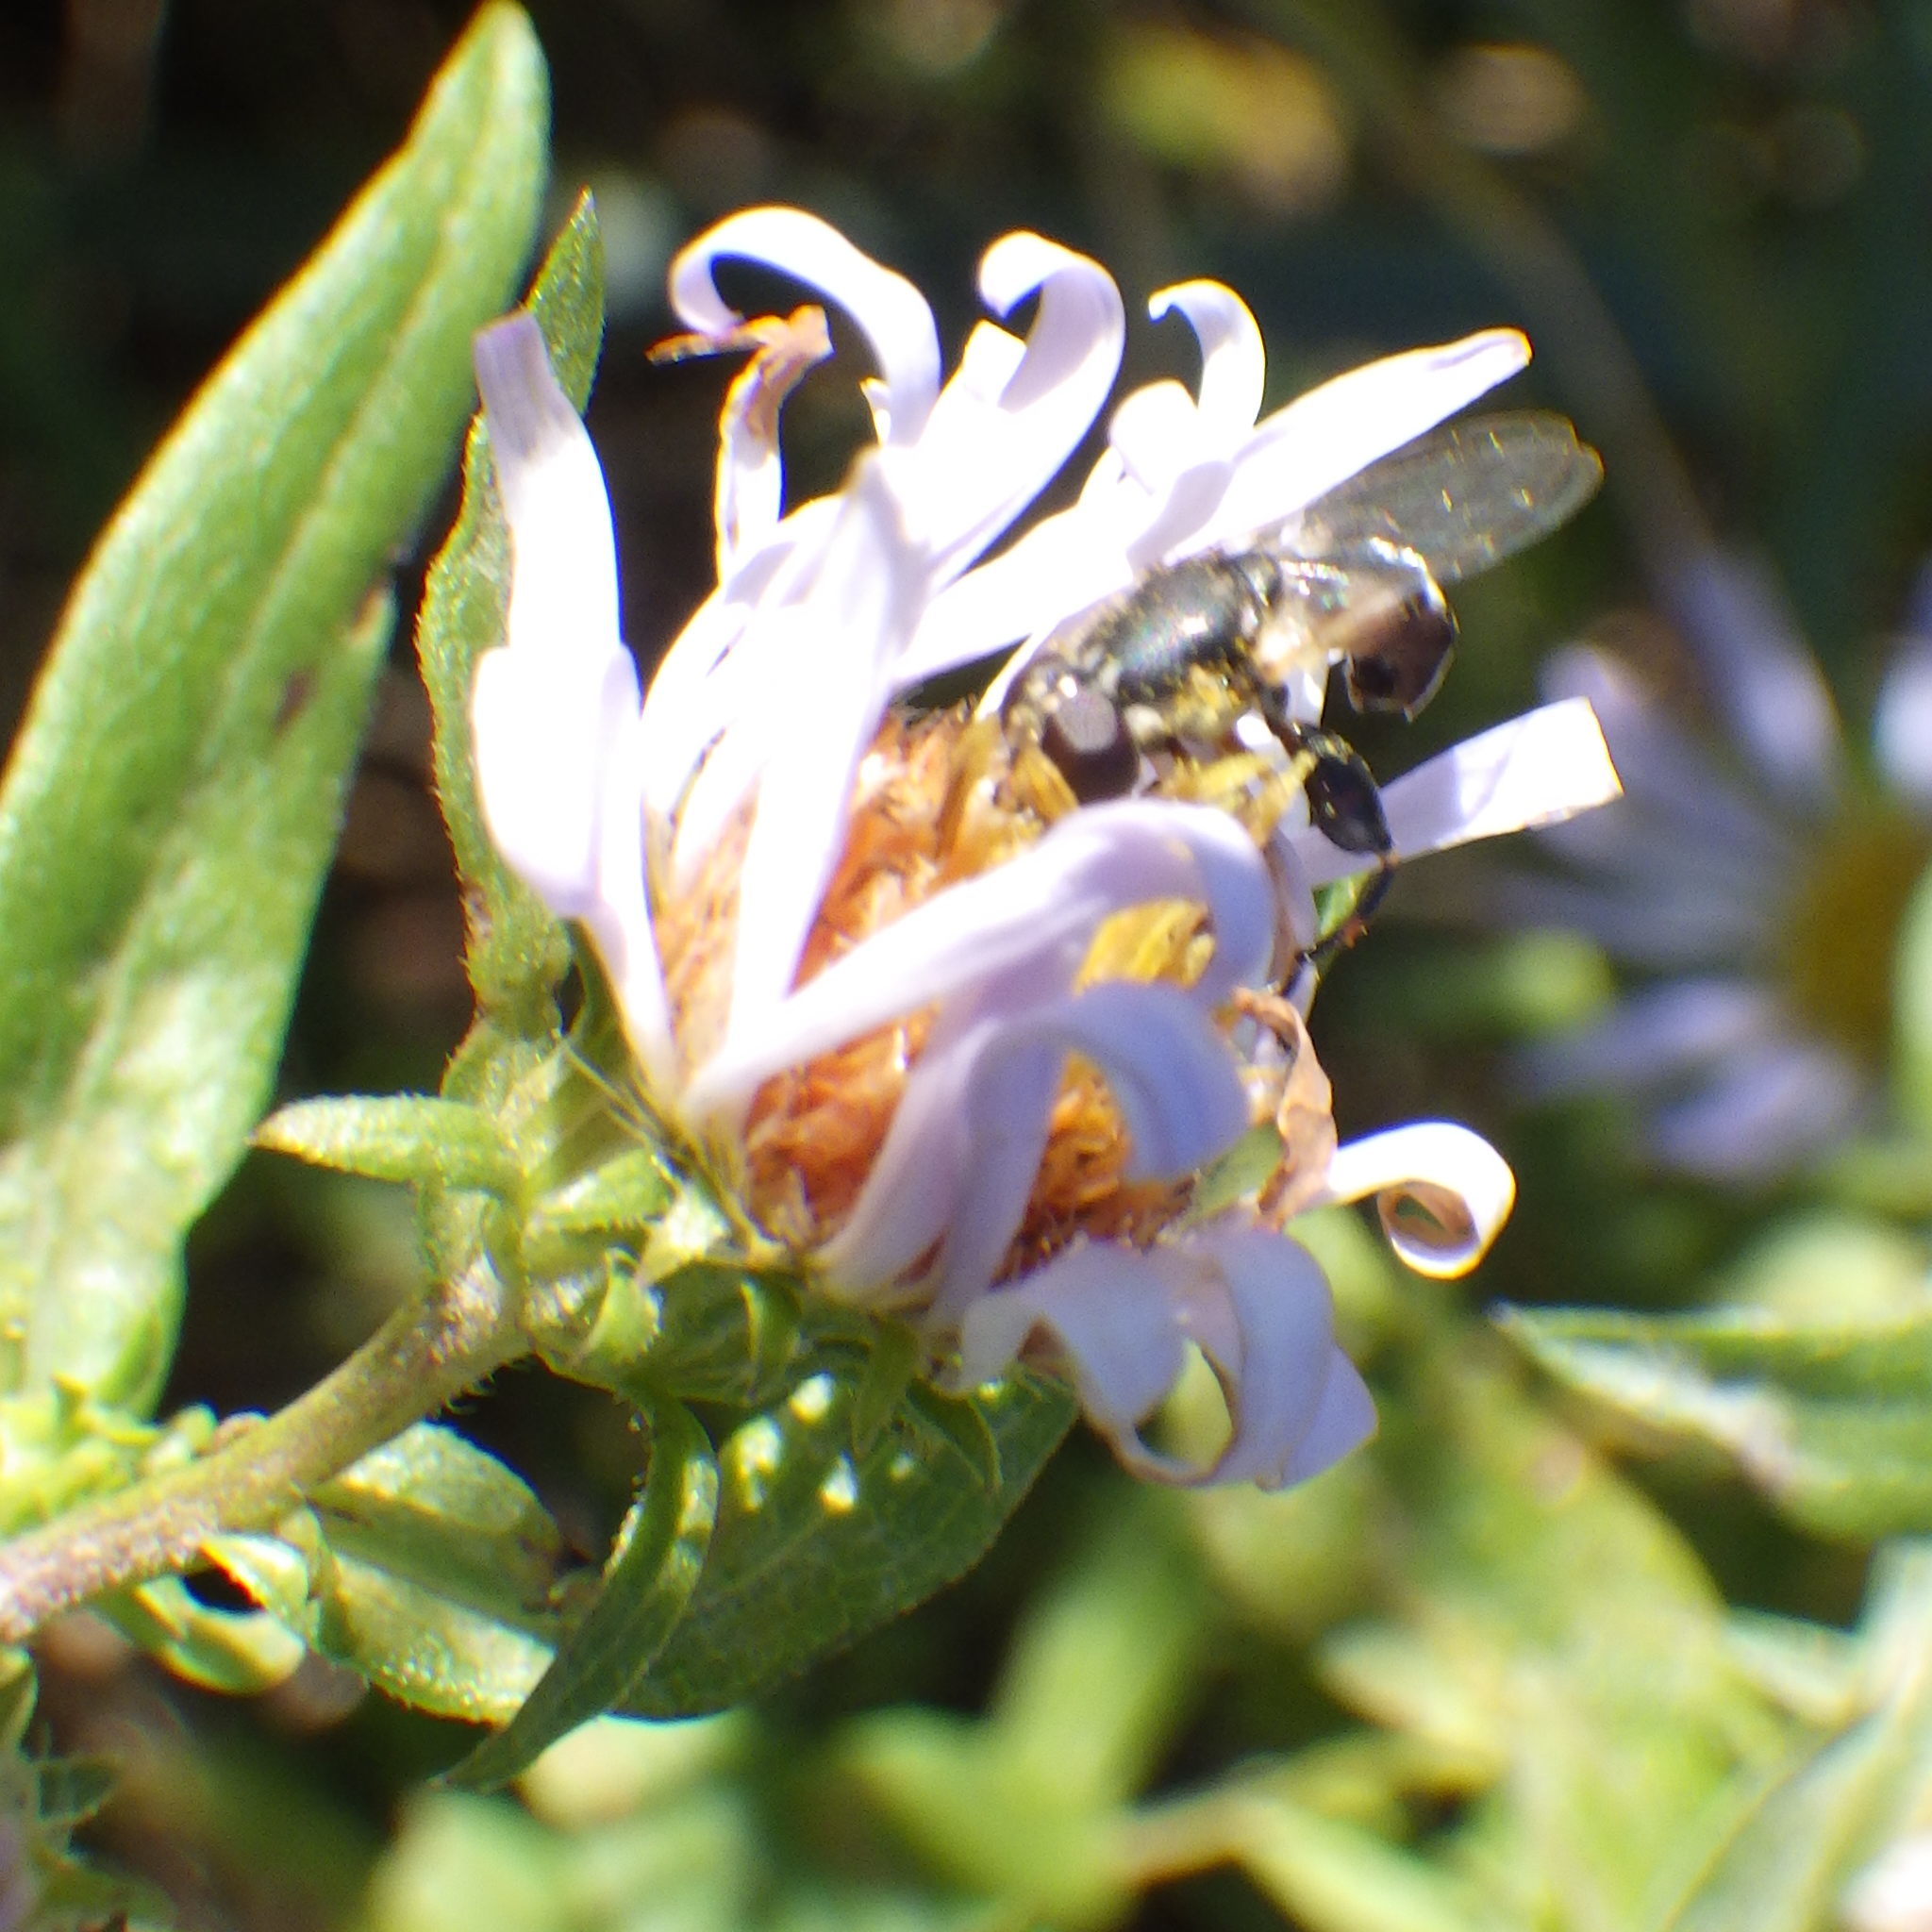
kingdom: Animalia
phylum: Arthropoda
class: Insecta
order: Diptera
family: Syrphidae
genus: Syritta
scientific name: Syritta pipiens
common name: Hover fly
